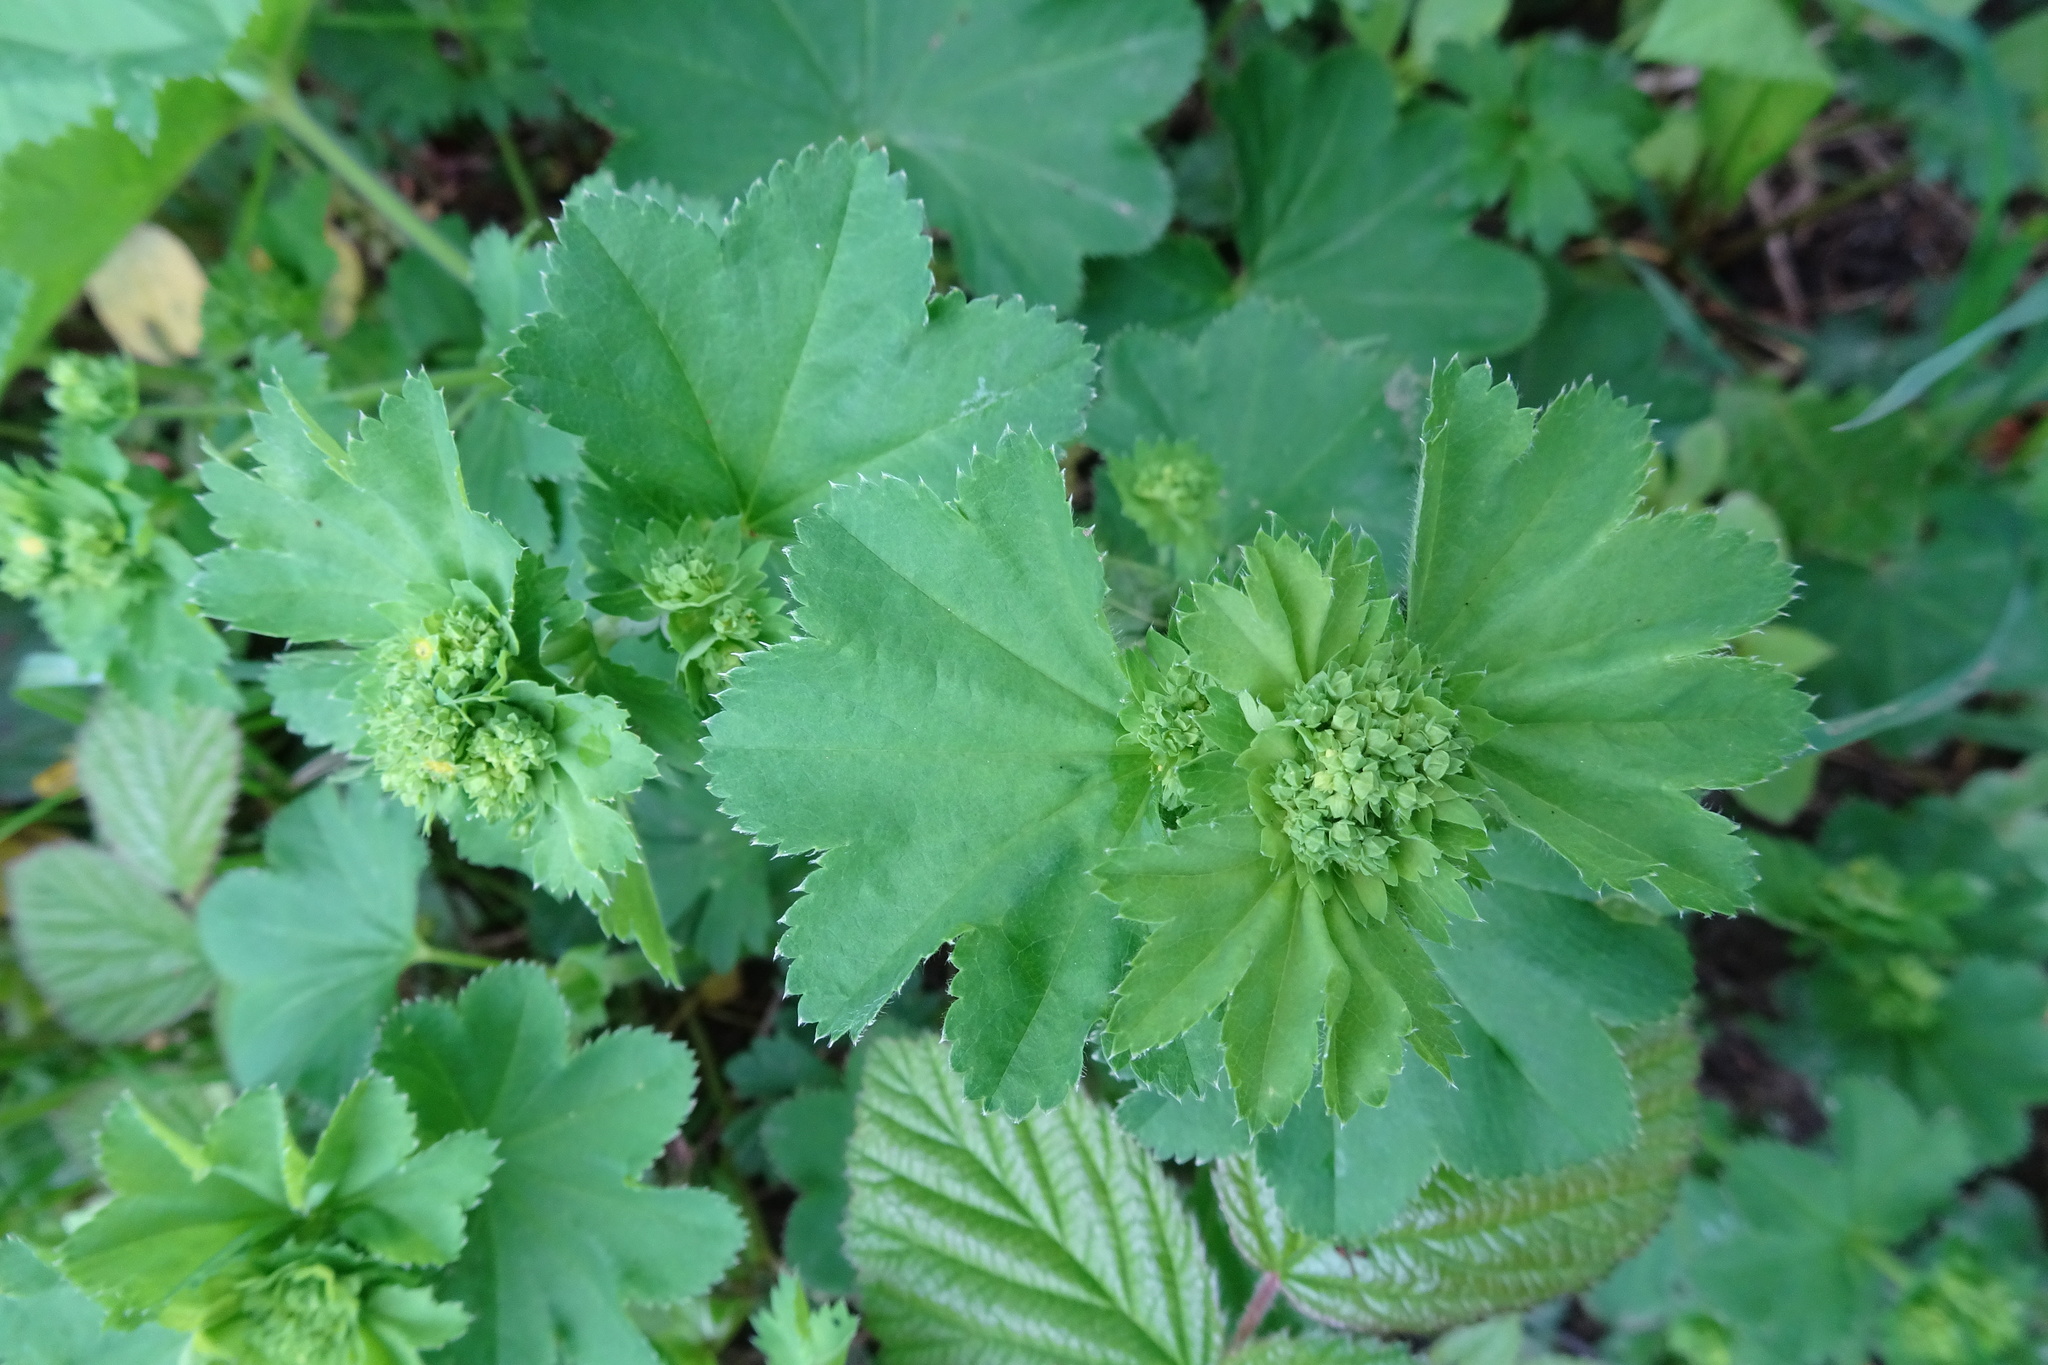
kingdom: Plantae
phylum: Tracheophyta
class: Magnoliopsida
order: Rosales
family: Rosaceae
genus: Alchemilla
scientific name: Alchemilla vulgaris
